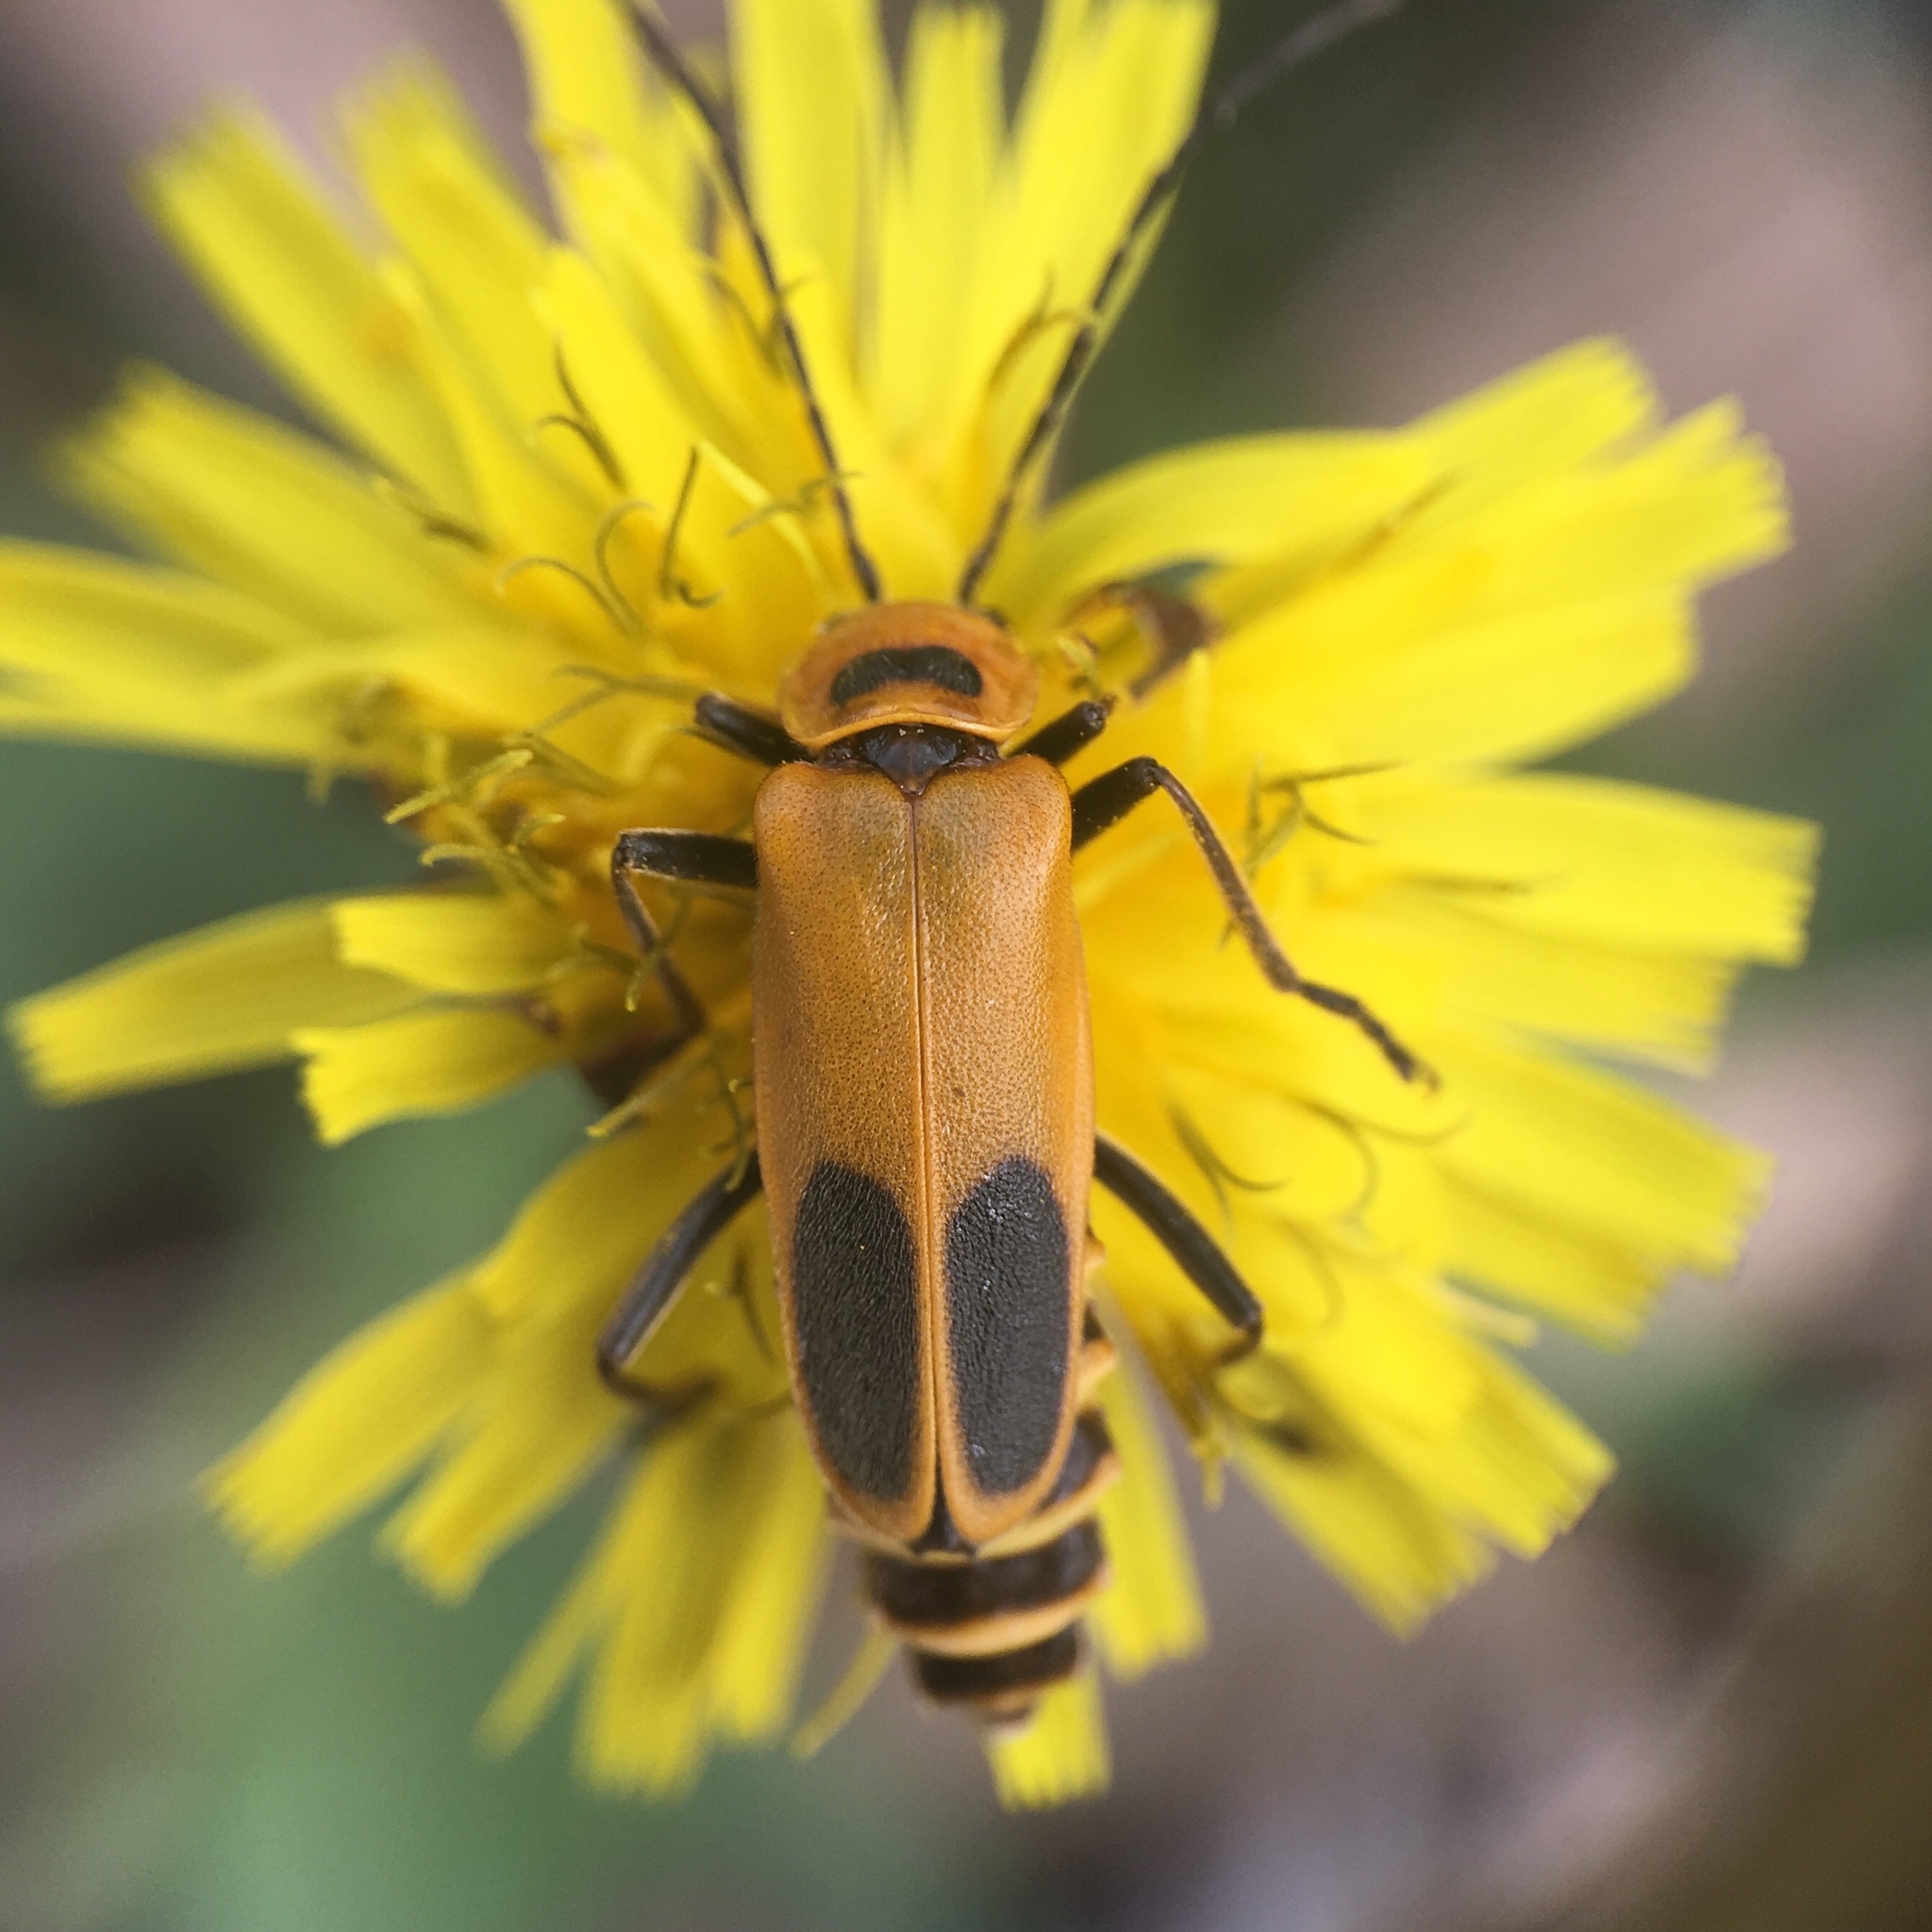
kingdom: Animalia
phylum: Arthropoda
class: Insecta
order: Coleoptera
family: Cantharidae
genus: Chauliognathus
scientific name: Chauliognathus pensylvanicus
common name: Goldenrod soldier beetle
